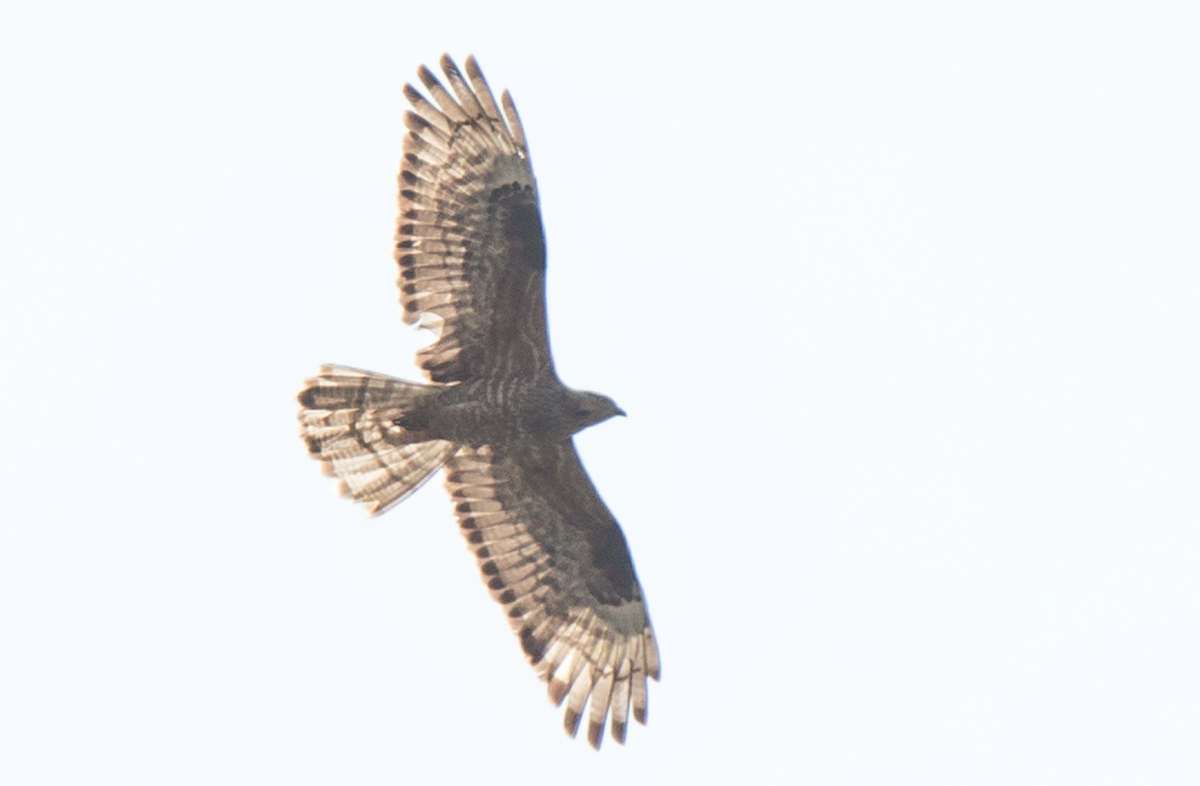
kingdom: Animalia
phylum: Chordata
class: Aves
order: Accipitriformes
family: Accipitridae
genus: Pernis
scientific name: Pernis apivorus
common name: European honey buzzard
